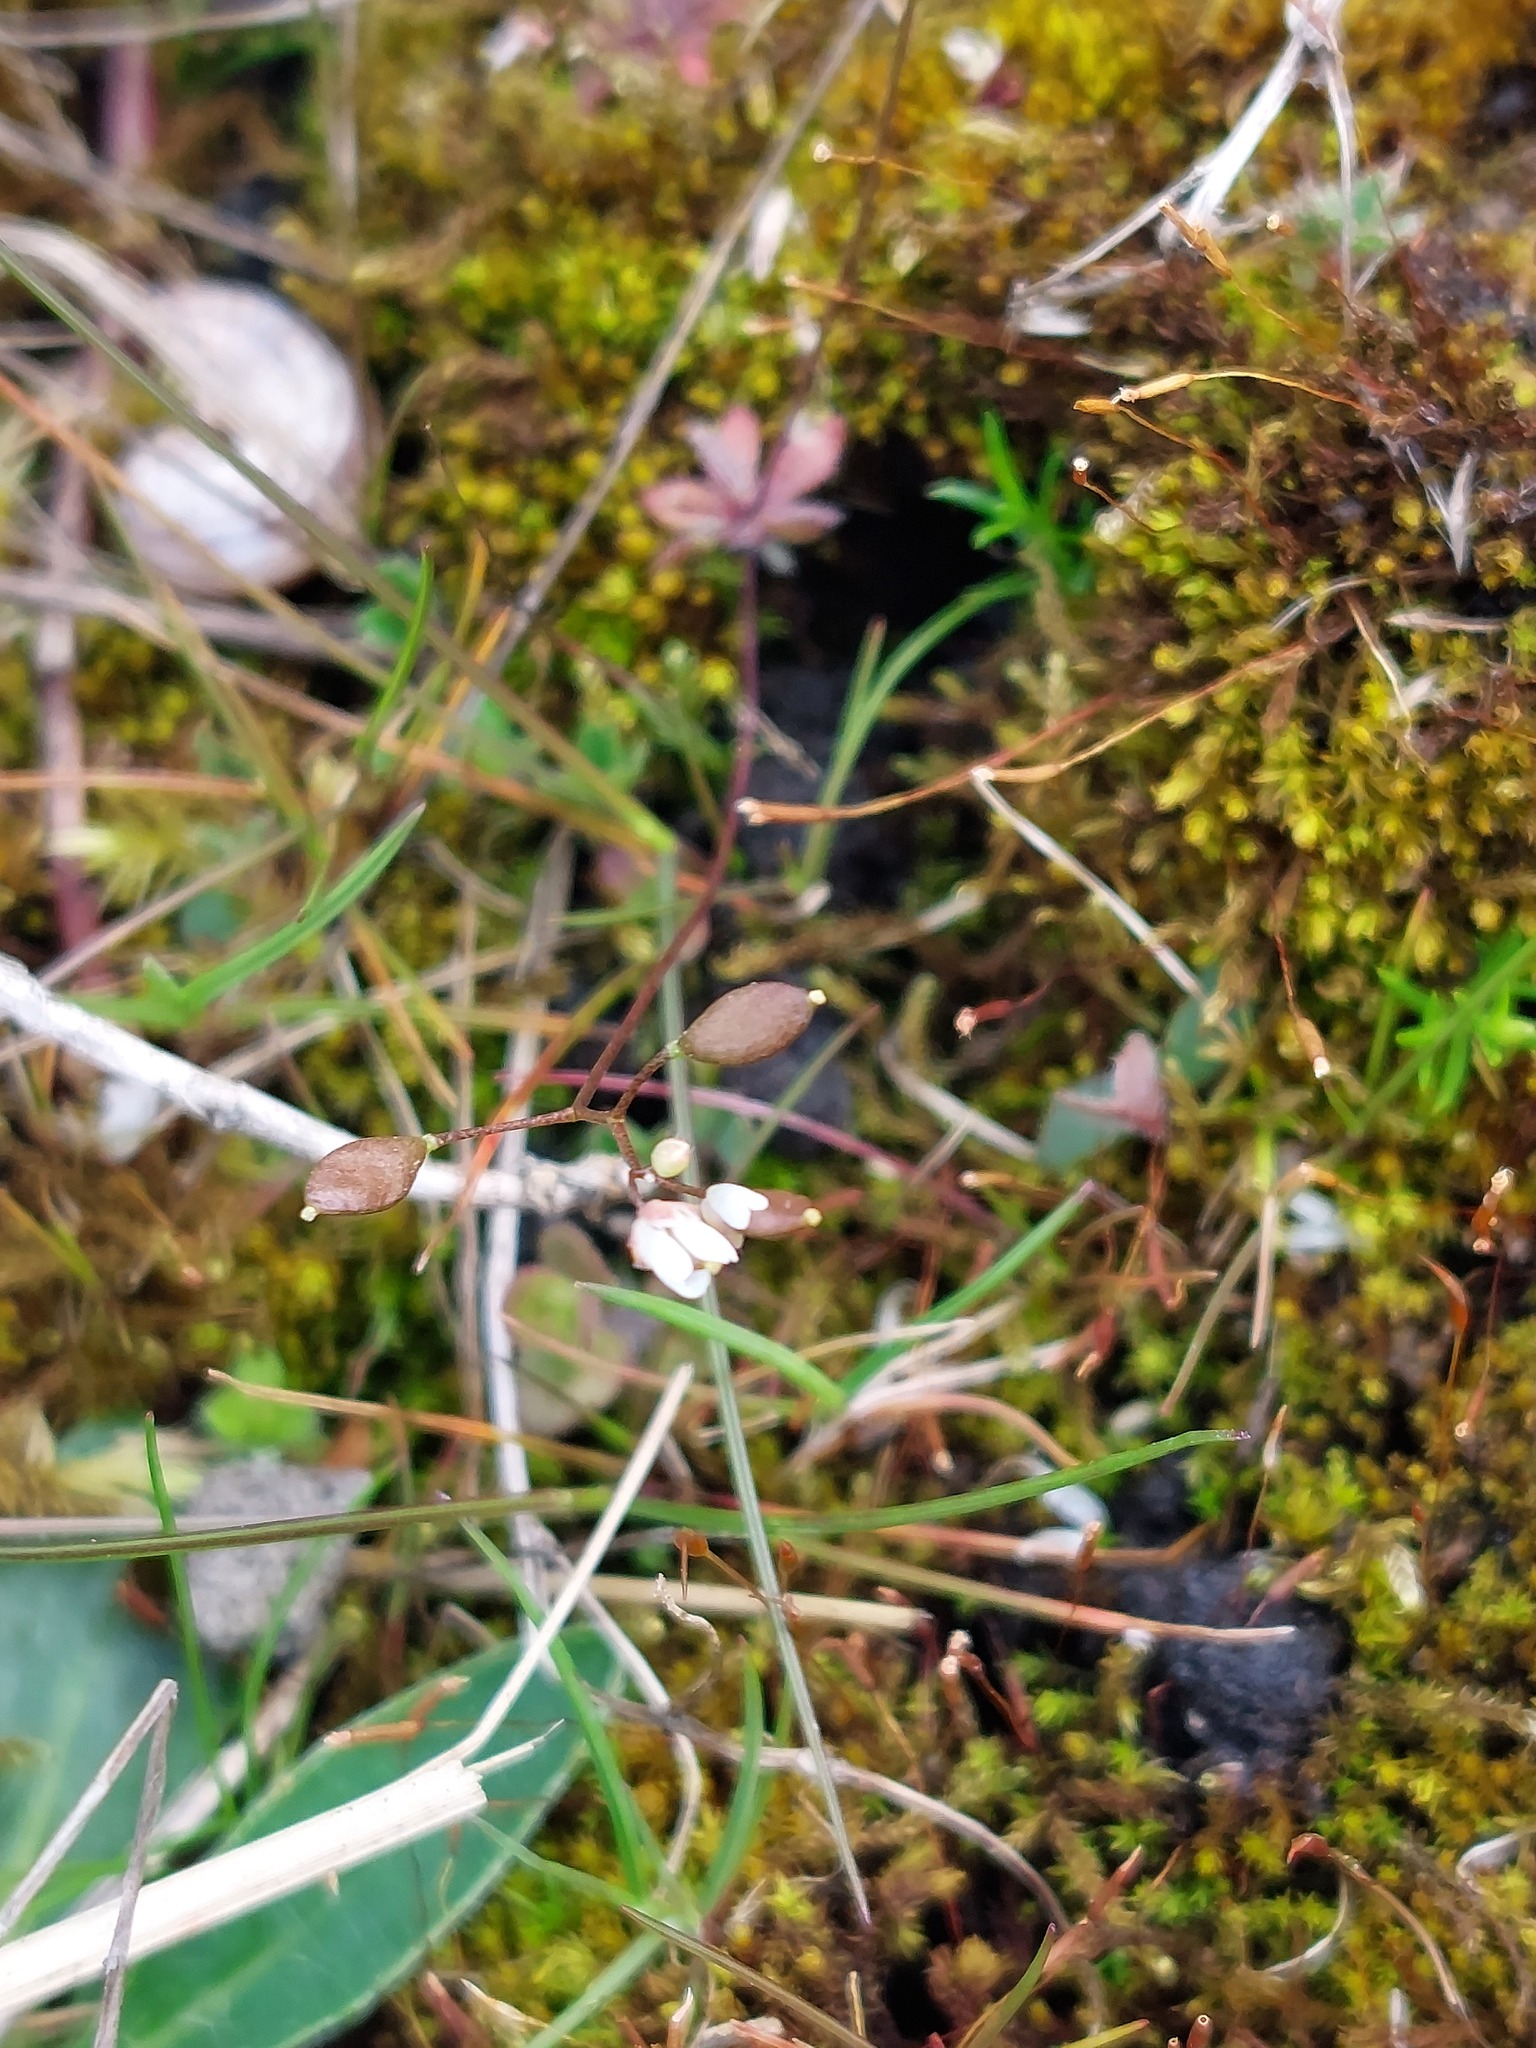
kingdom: Plantae
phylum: Tracheophyta
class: Magnoliopsida
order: Brassicales
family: Brassicaceae
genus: Draba
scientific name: Draba verna
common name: Spring draba
